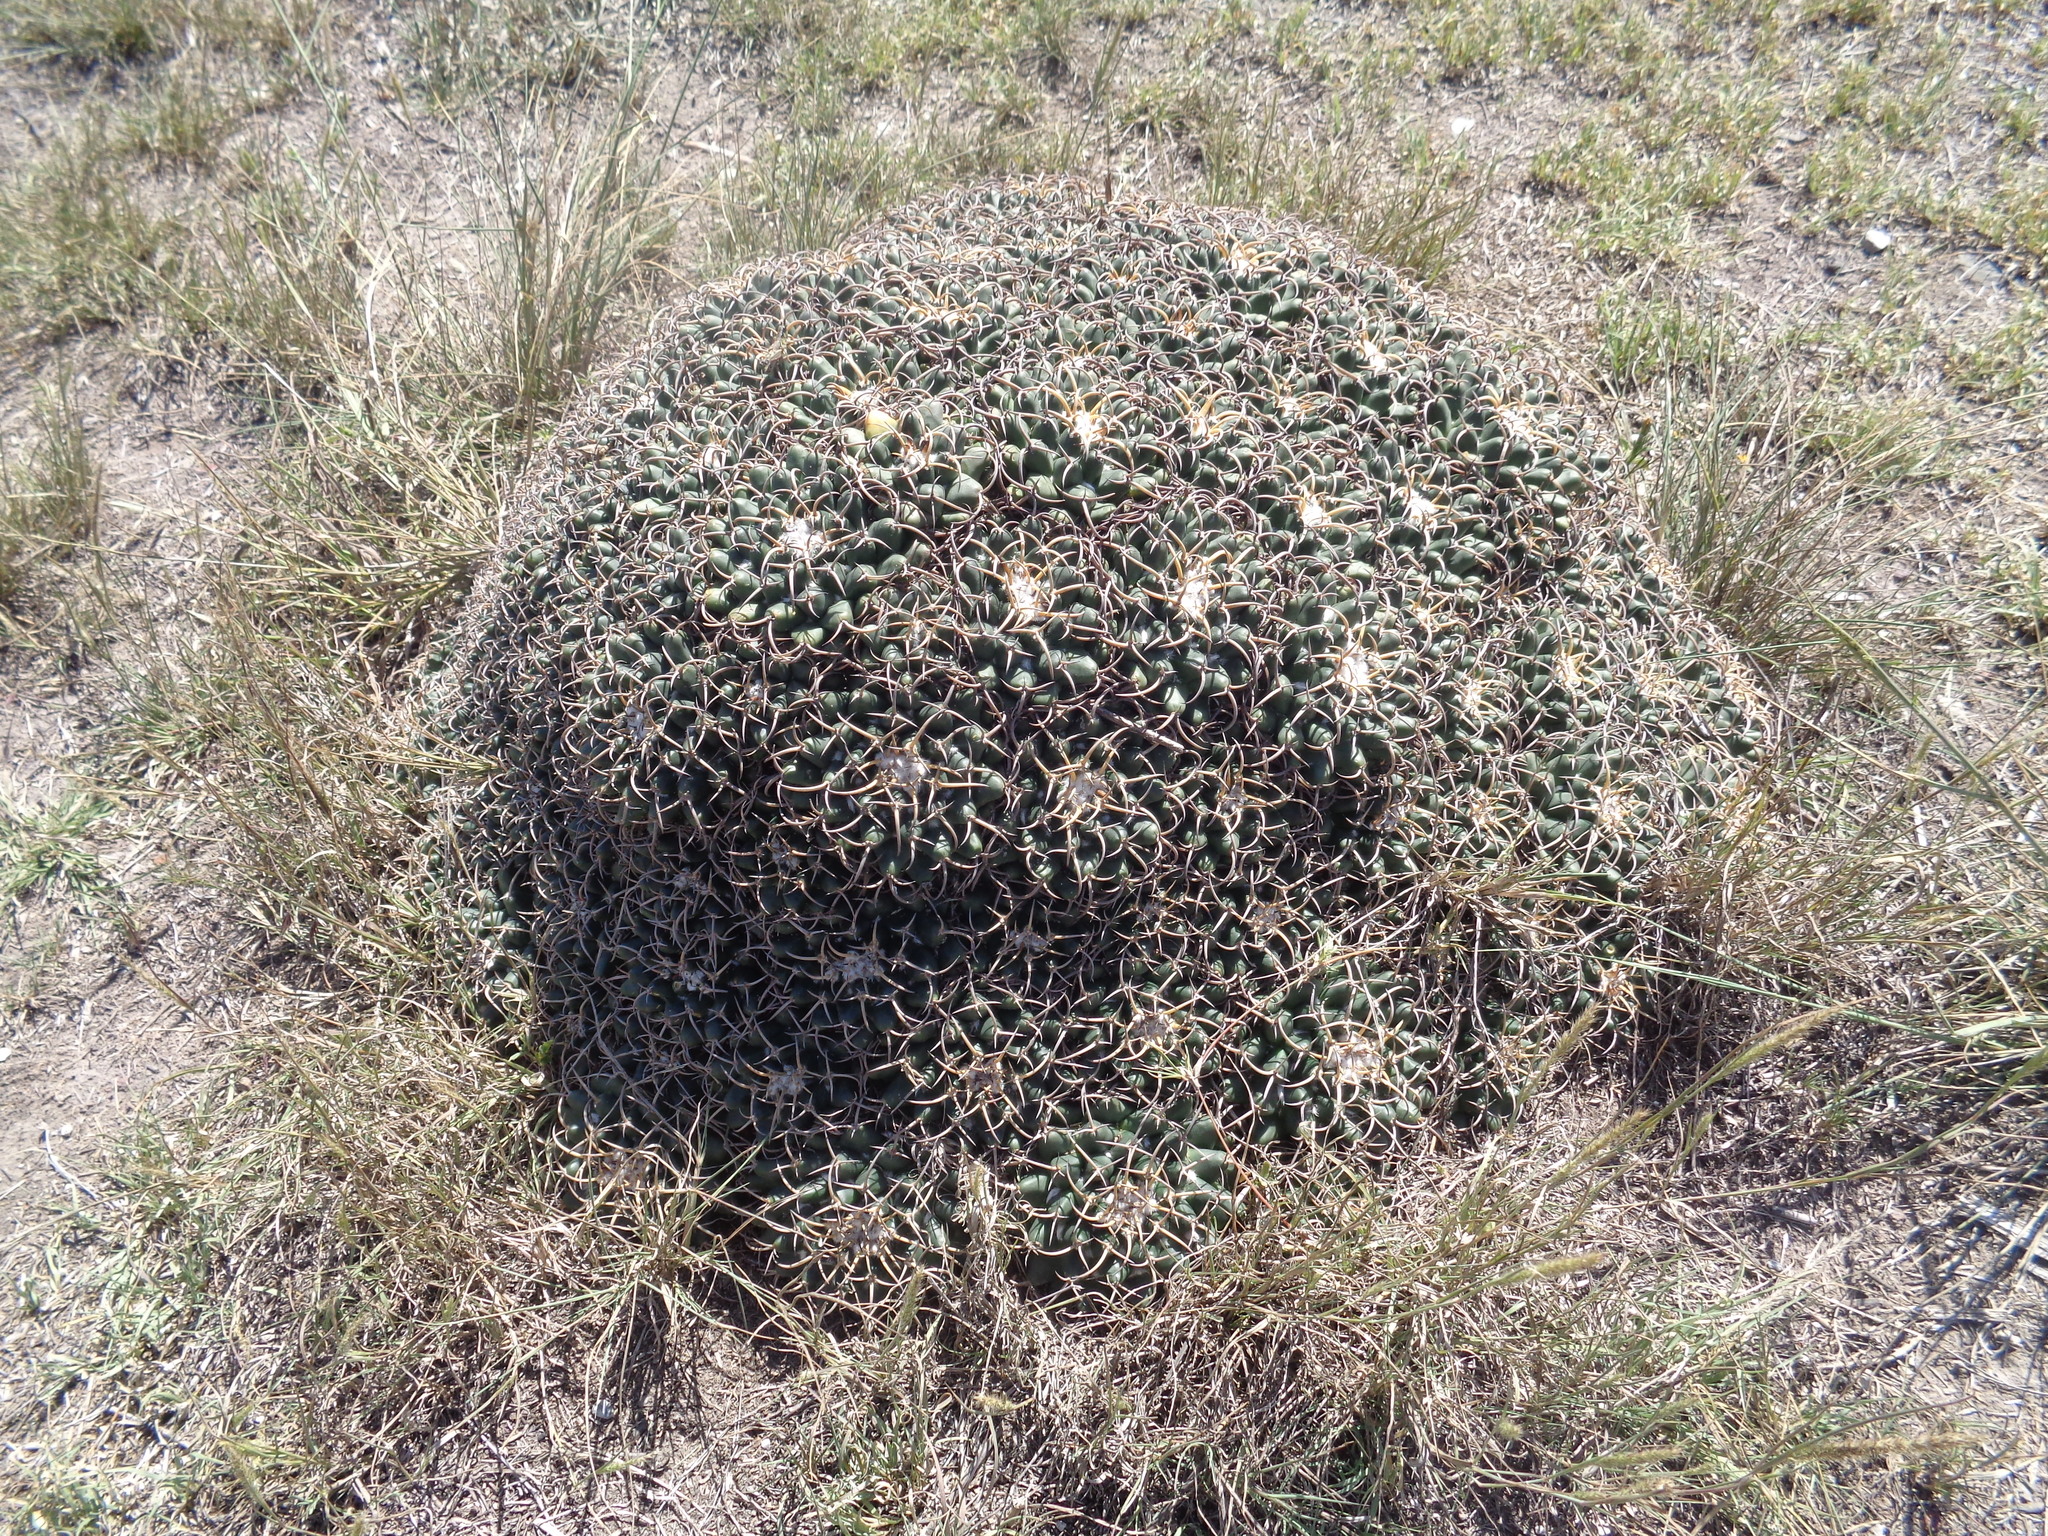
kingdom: Plantae
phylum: Tracheophyta
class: Magnoliopsida
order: Caryophyllales
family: Cactaceae
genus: Mammillaria
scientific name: Mammillaria magnimamma
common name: Mexican pincushion
